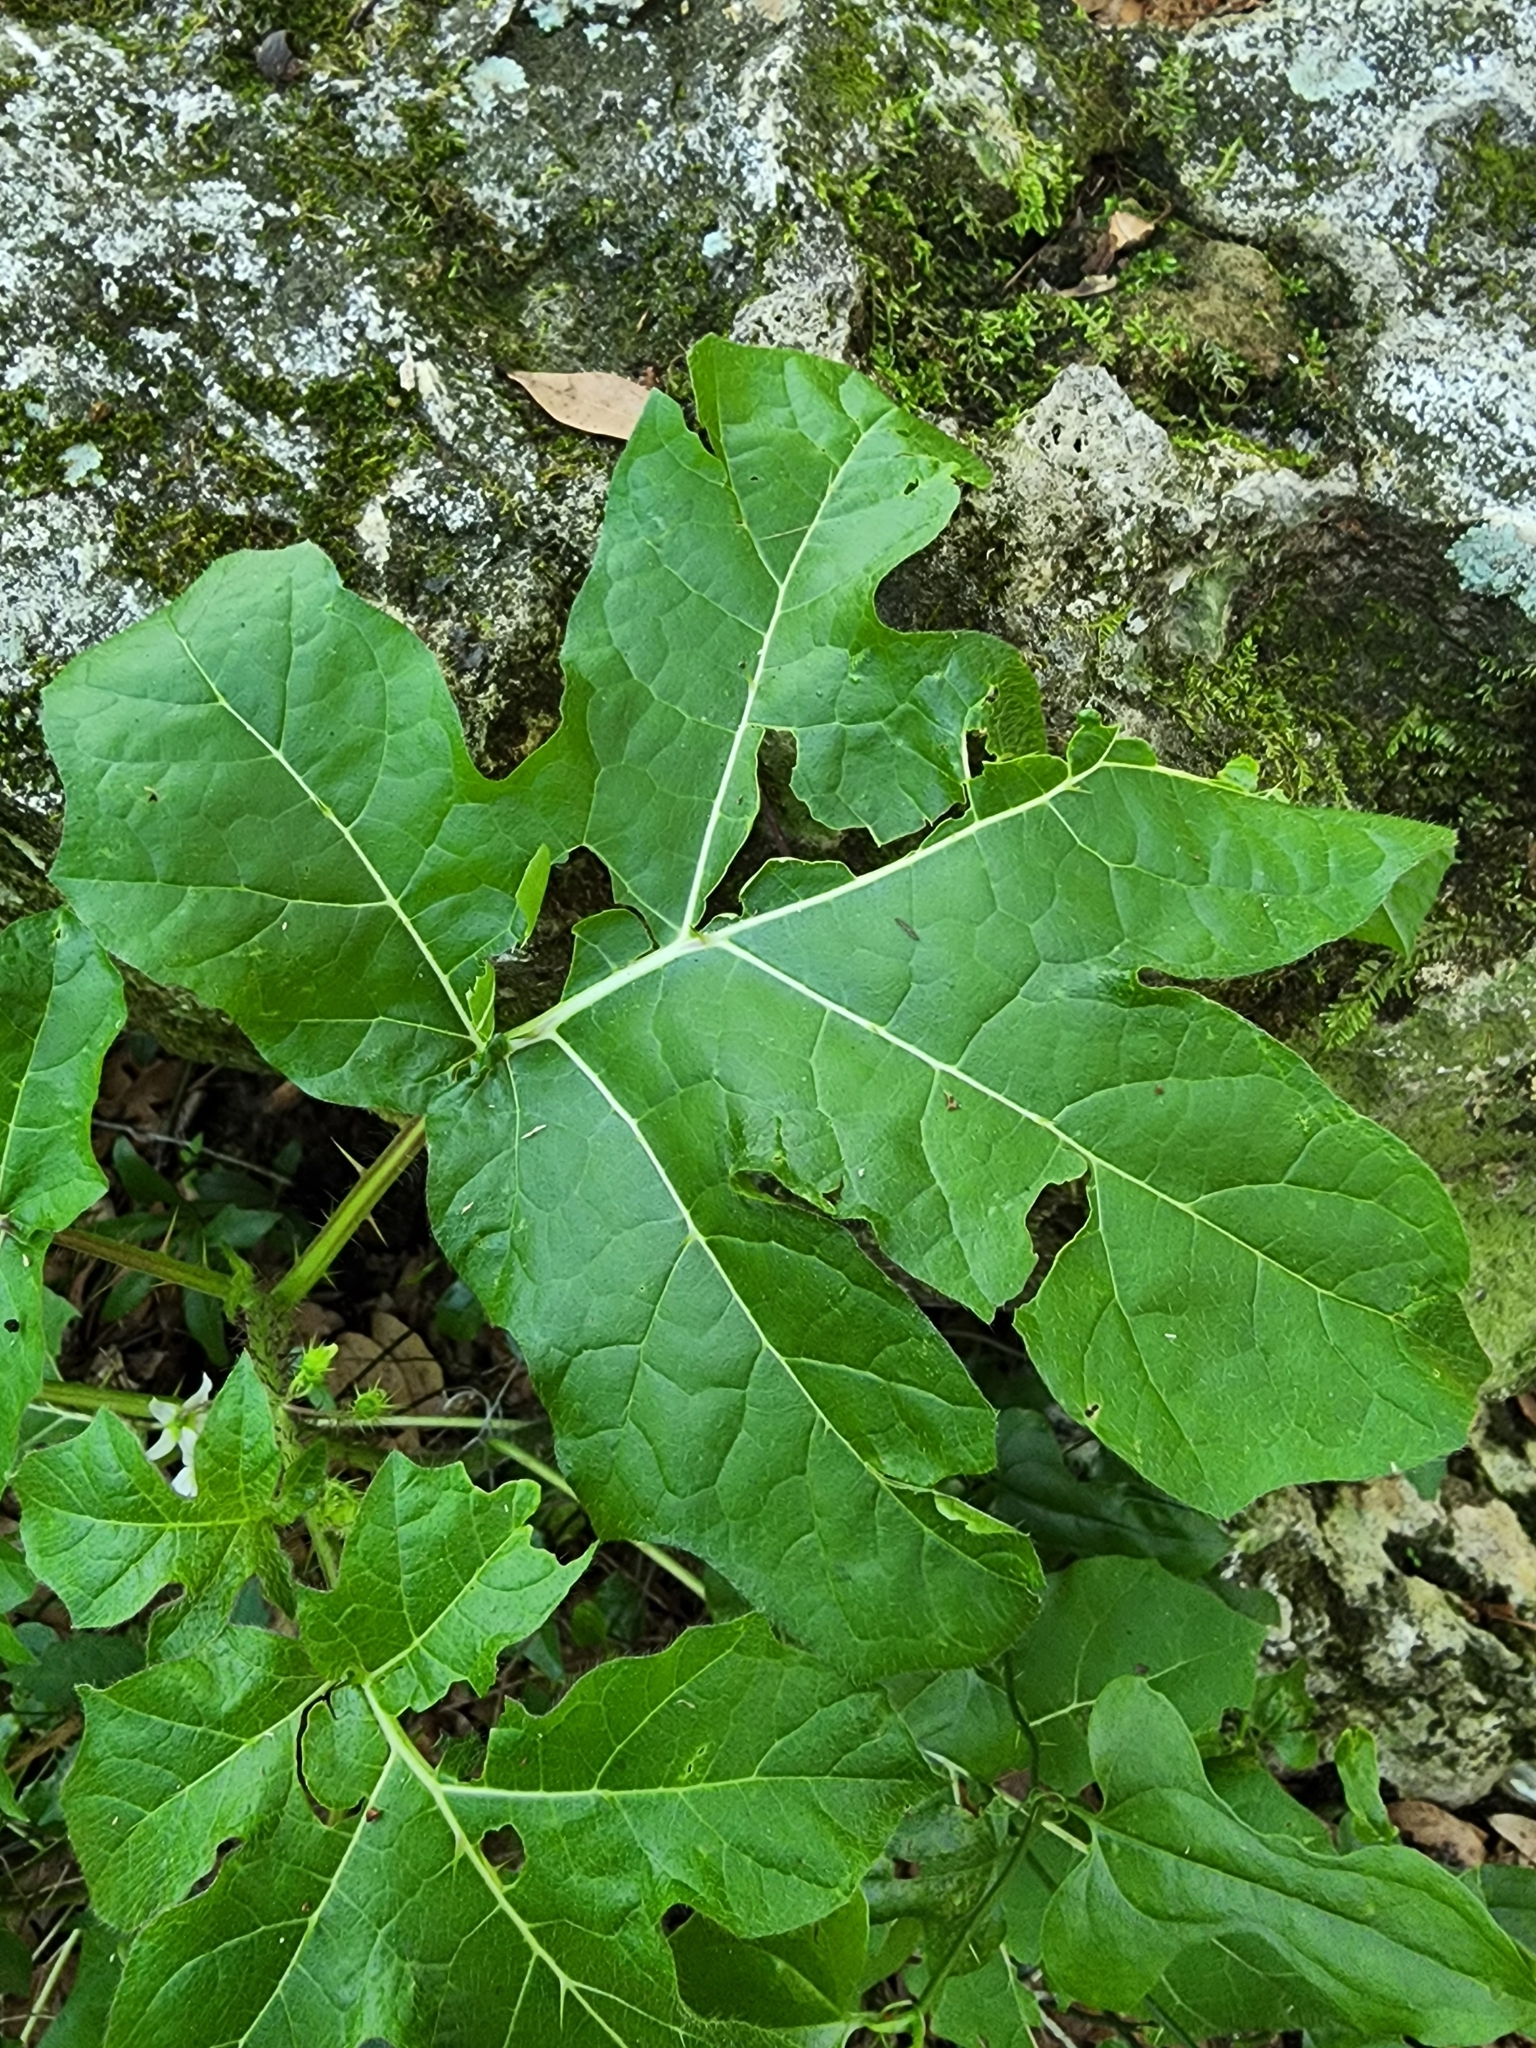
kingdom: Plantae
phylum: Tracheophyta
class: Magnoliopsida
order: Solanales
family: Solanaceae
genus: Solanum
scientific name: Solanum capsicoides
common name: Cockroach berry
